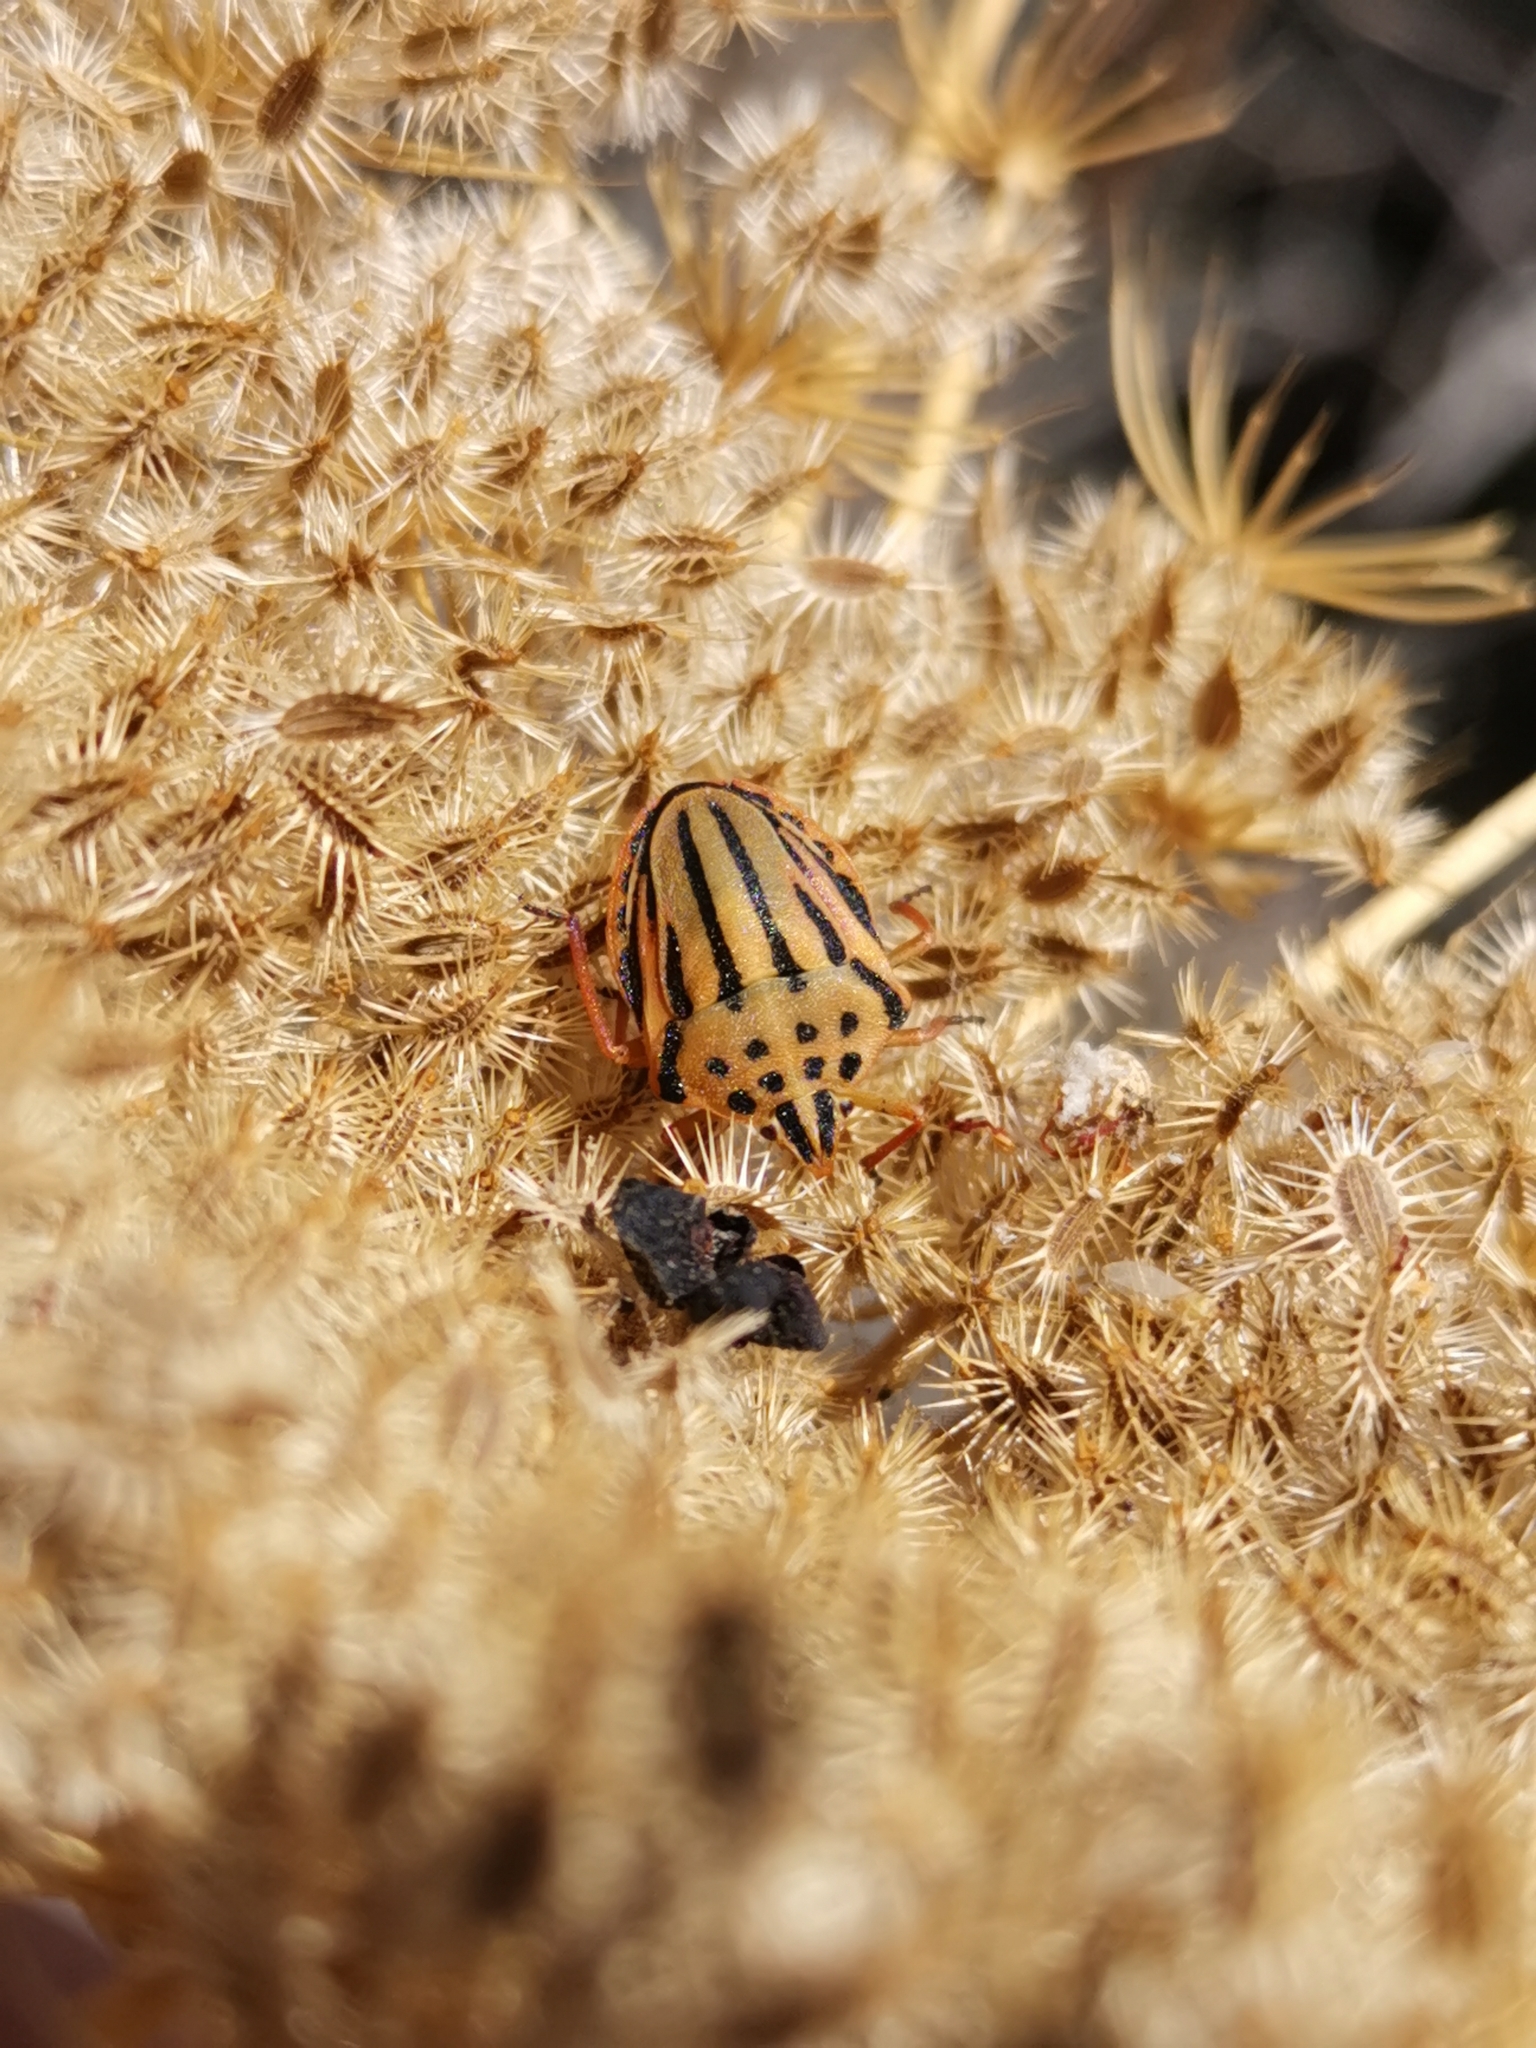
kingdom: Animalia
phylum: Arthropoda
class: Insecta
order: Hemiptera
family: Pentatomidae
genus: Graphosoma
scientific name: Graphosoma semipunctatum
